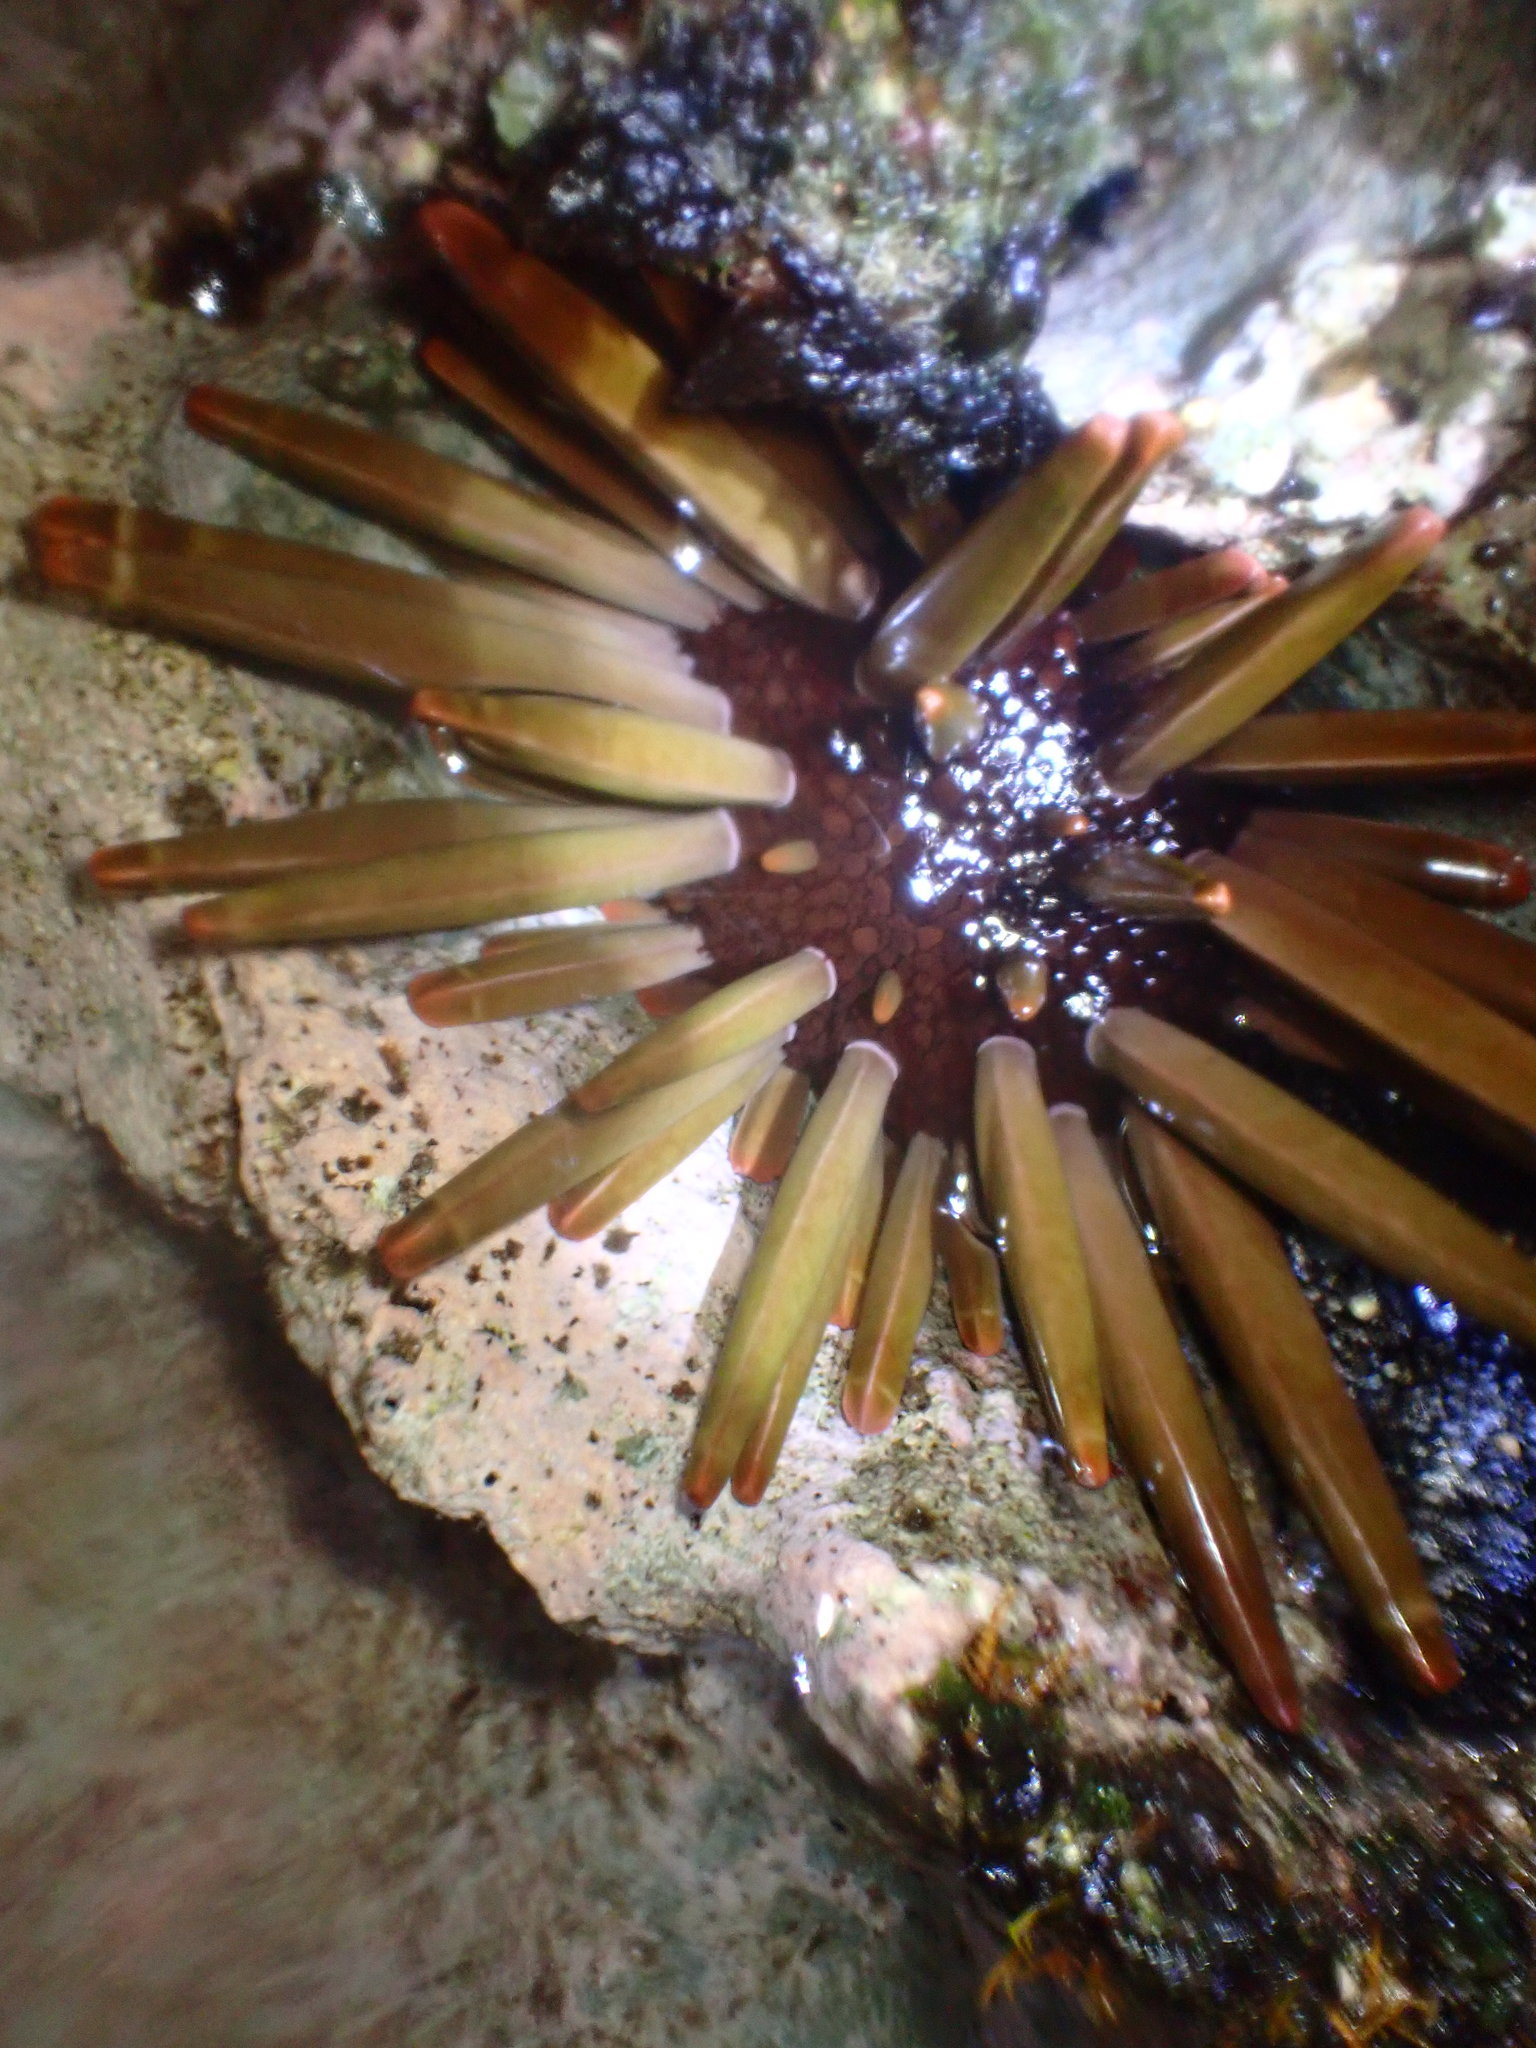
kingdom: Animalia
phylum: Echinodermata
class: Echinoidea
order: Camarodonta
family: Echinometridae
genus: Heterocentrotus
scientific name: Heterocentrotus mamillatus
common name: Slate pencil urchin
